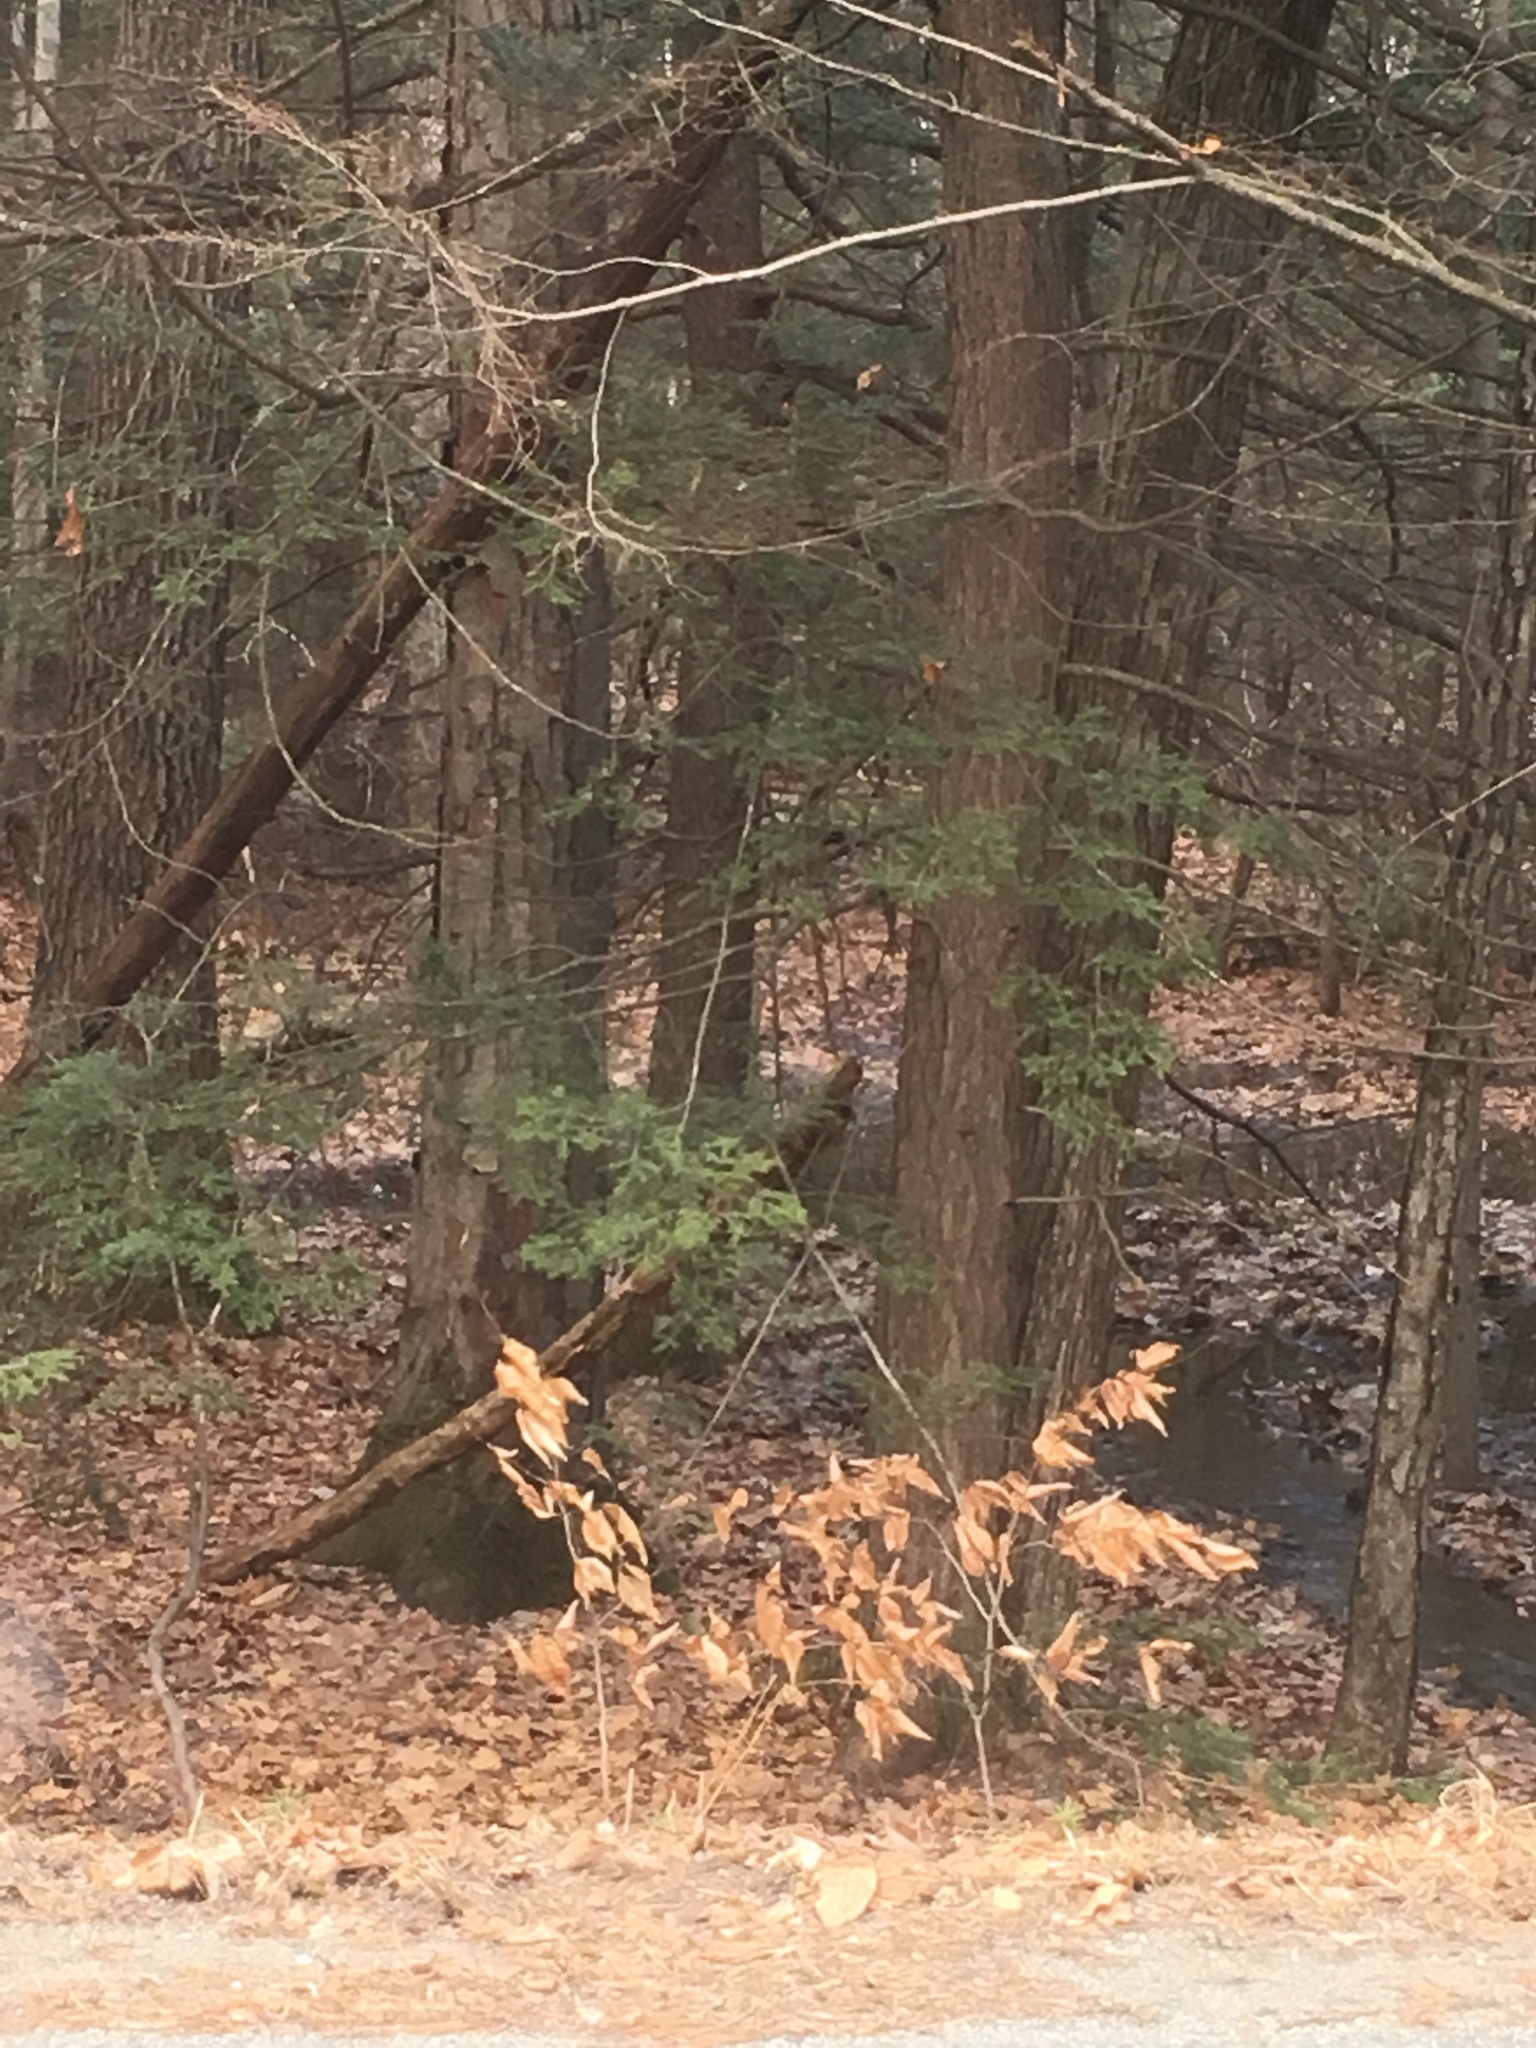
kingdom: Plantae
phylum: Tracheophyta
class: Pinopsida
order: Pinales
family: Pinaceae
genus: Tsuga
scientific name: Tsuga canadensis
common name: Eastern hemlock
